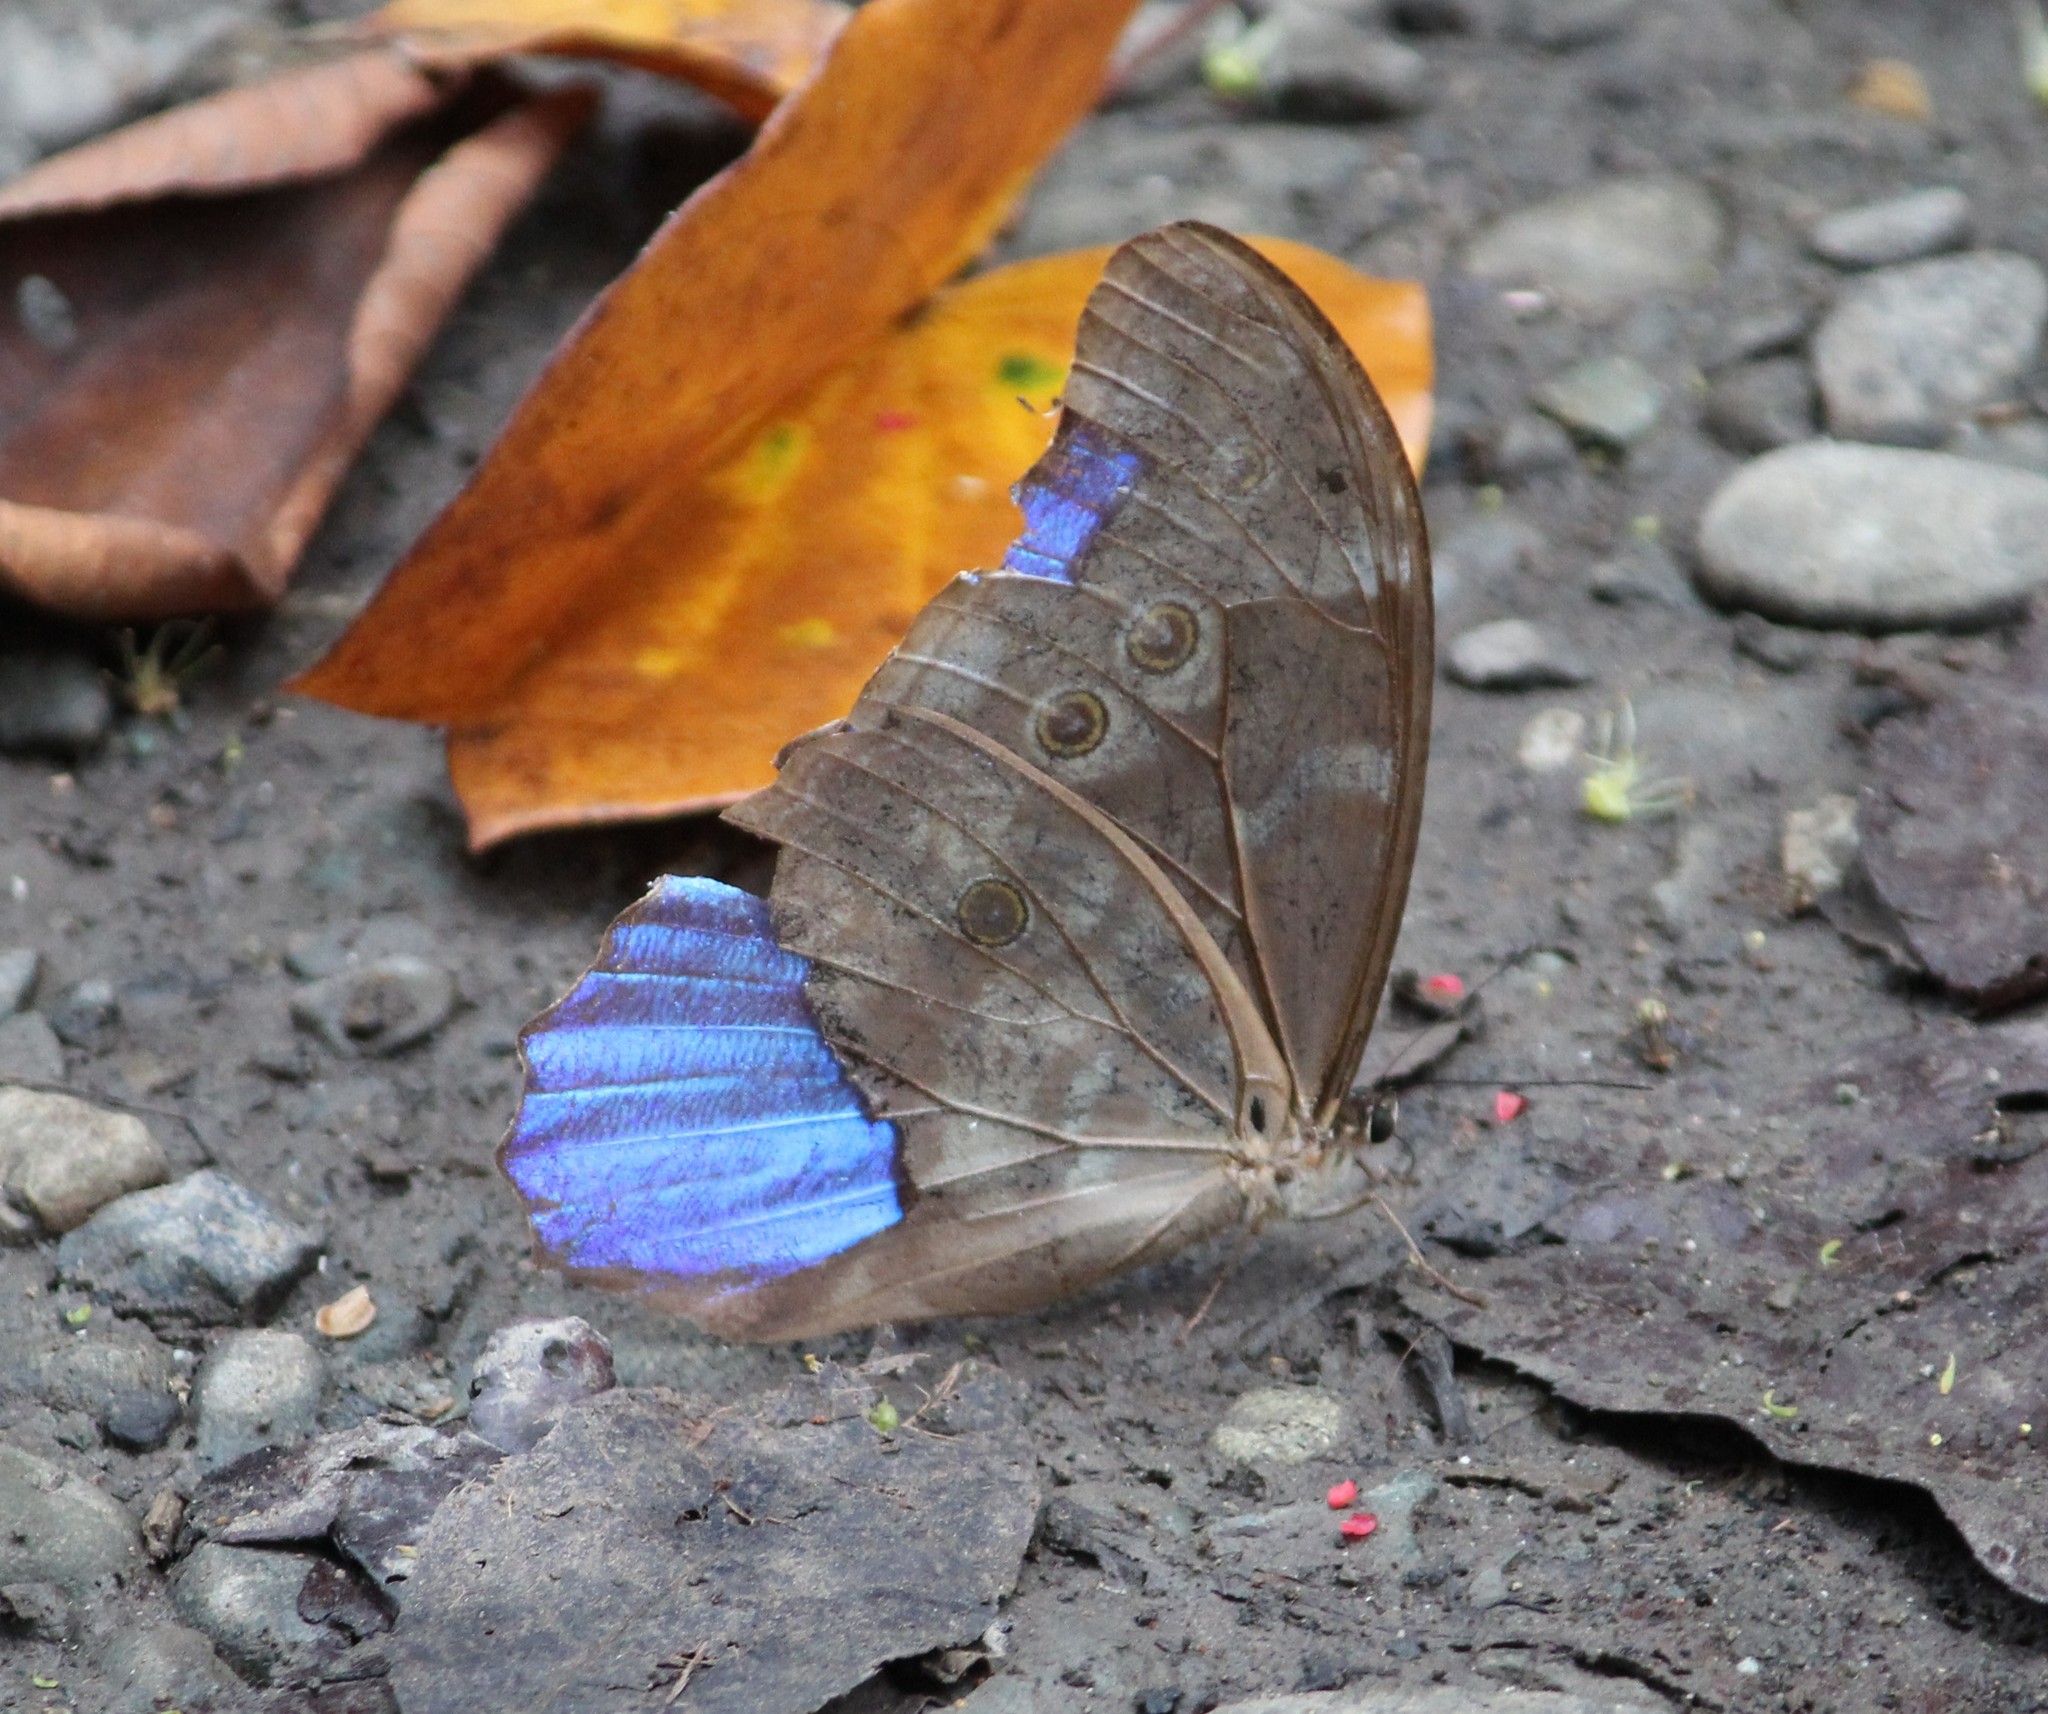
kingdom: Animalia
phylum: Arthropoda
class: Insecta
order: Lepidoptera
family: Nymphalidae
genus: Morpho
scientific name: Morpho amathonte
